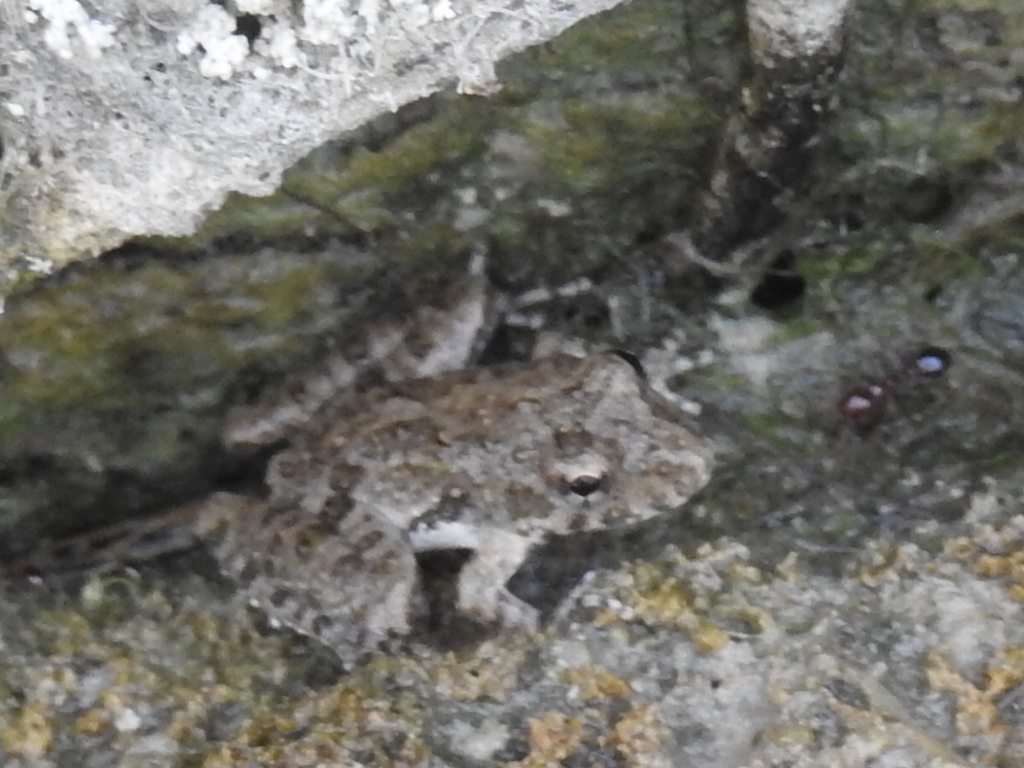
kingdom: Animalia
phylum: Chordata
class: Amphibia
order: Anura
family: Hylidae
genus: Acris
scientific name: Acris blanchardi
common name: Blanchard's cricket frog
